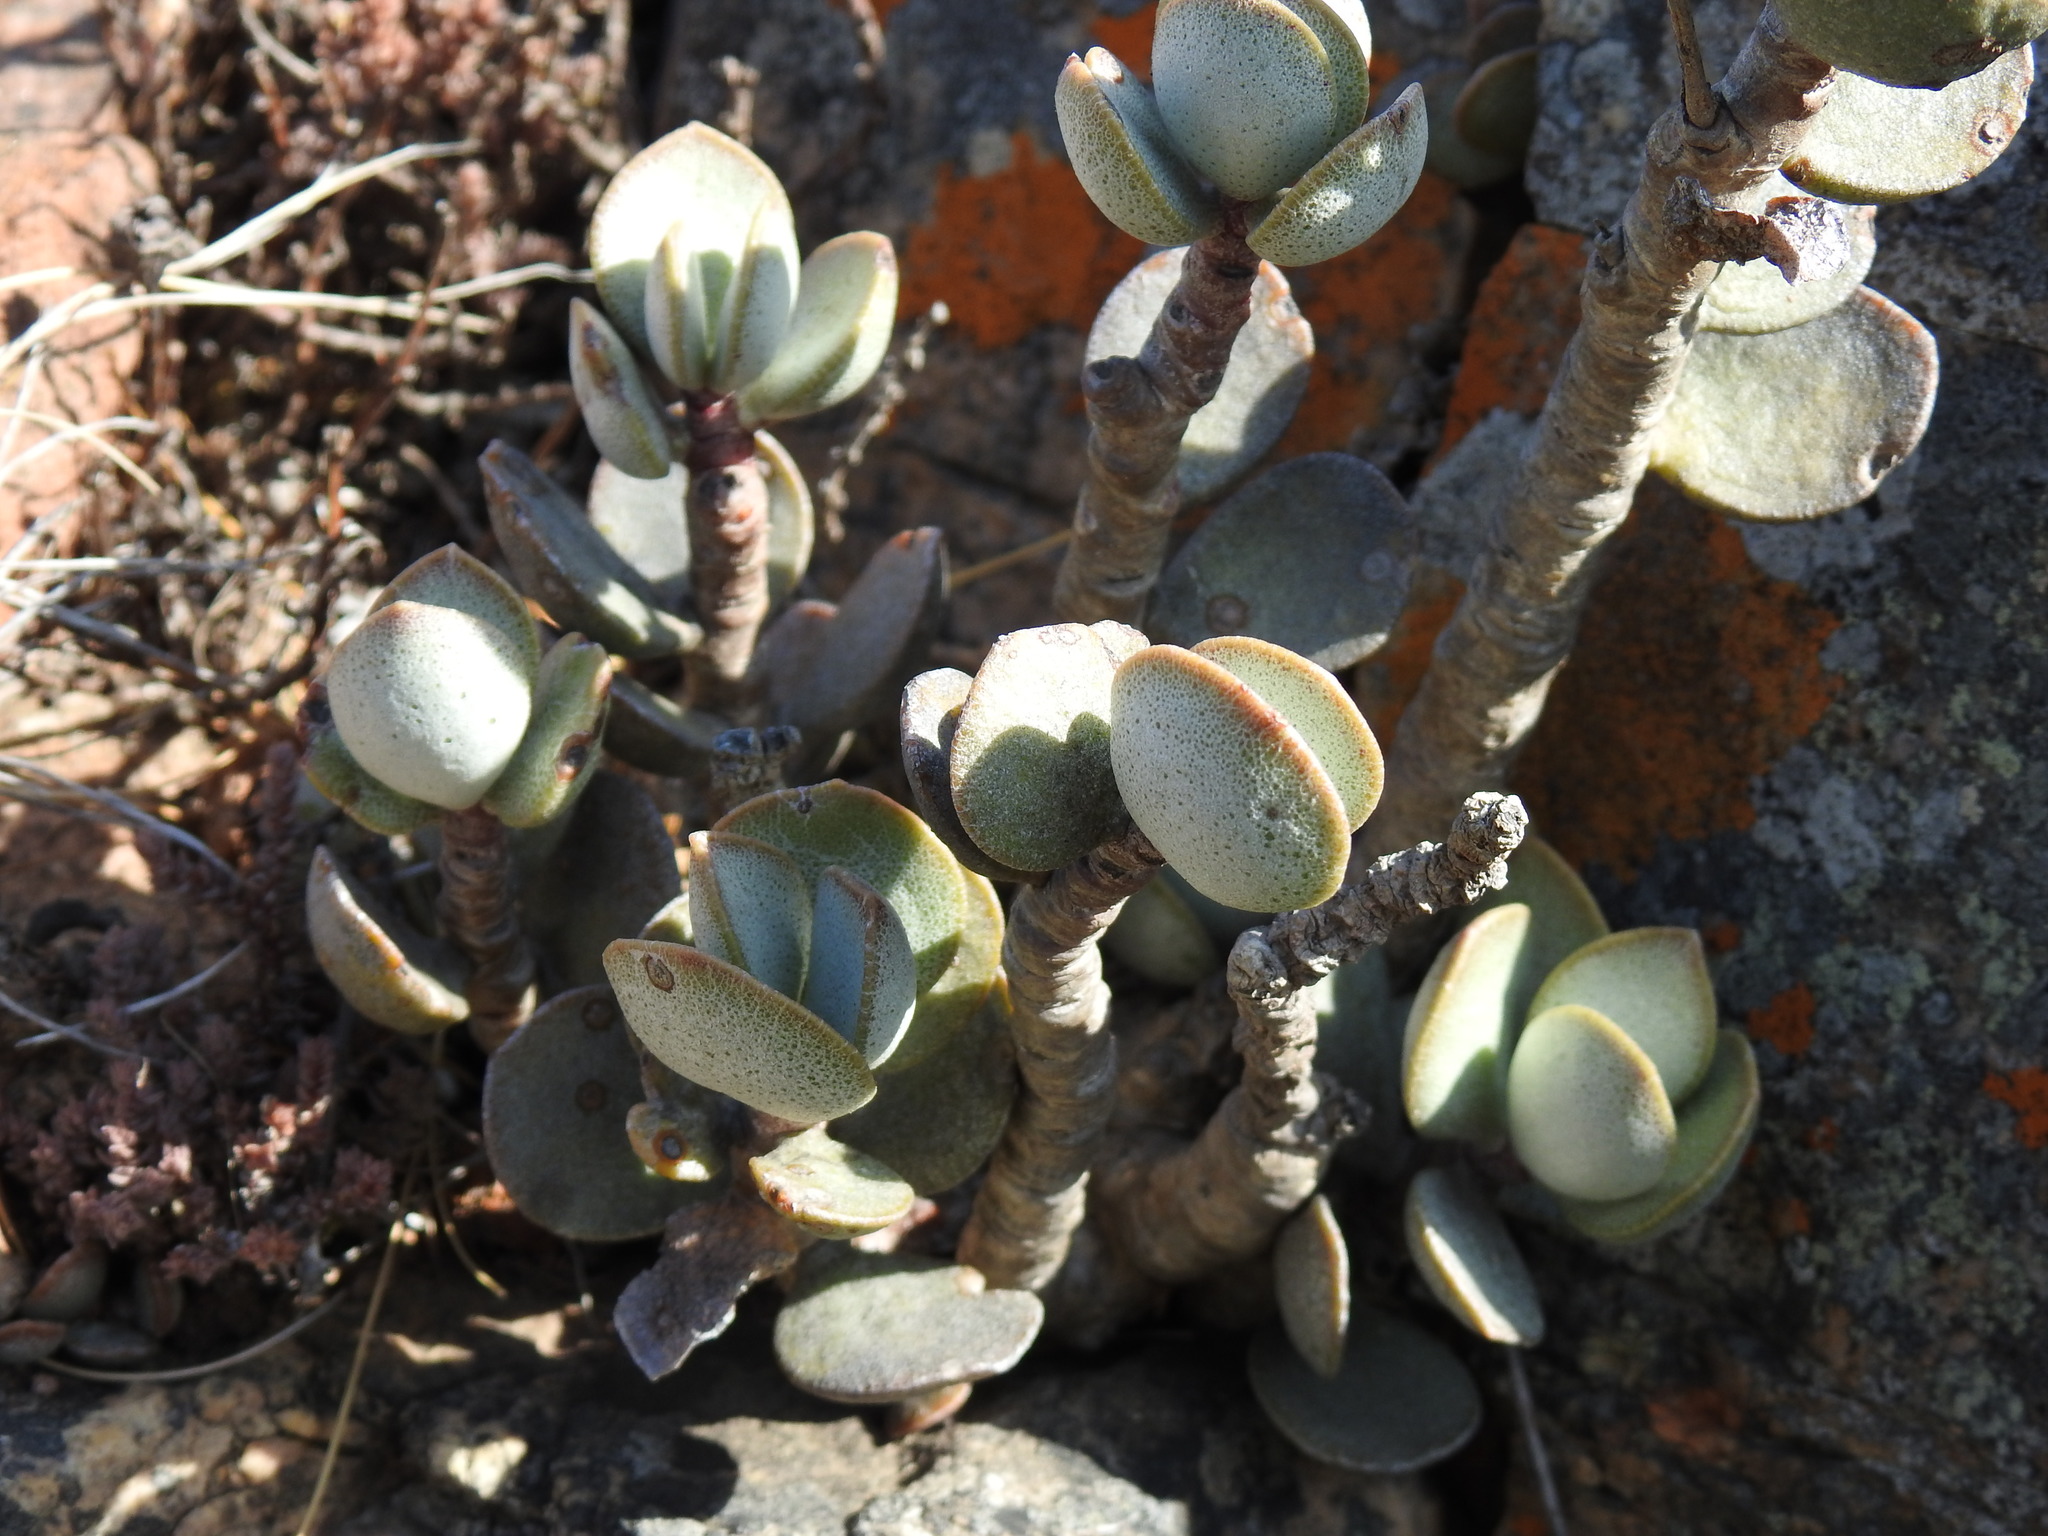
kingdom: Plantae
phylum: Tracheophyta
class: Magnoliopsida
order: Saxifragales
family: Crassulaceae
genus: Adromischus
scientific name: Adromischus hemisphaericus
